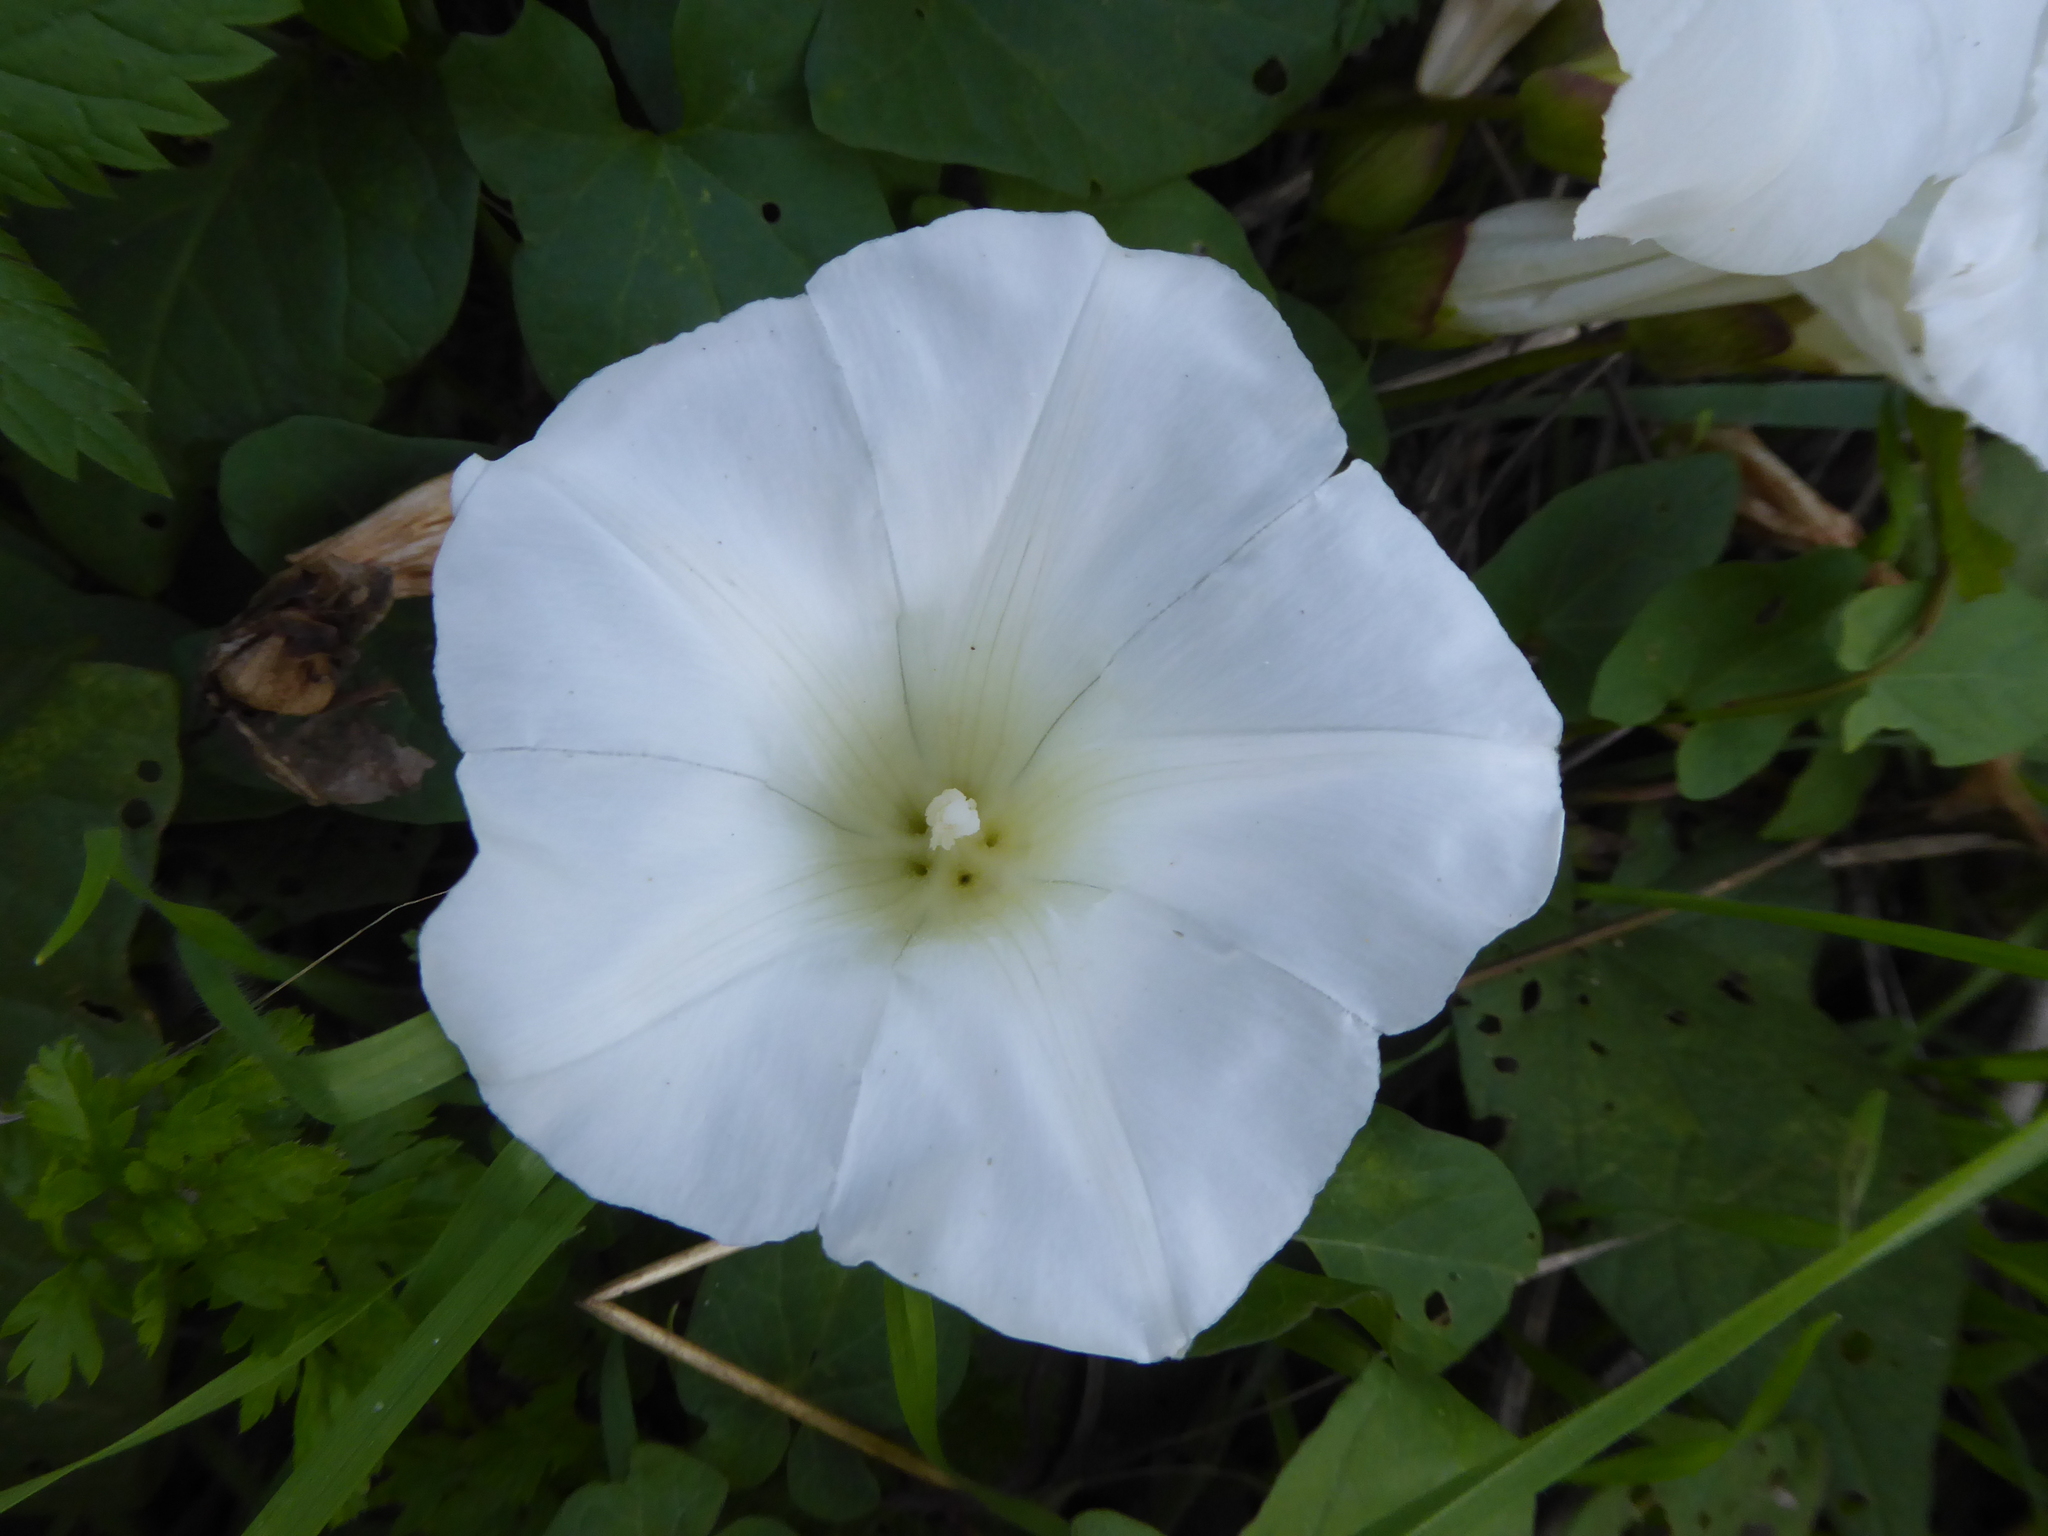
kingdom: Plantae
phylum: Tracheophyta
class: Magnoliopsida
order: Solanales
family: Convolvulaceae
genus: Calystegia
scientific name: Calystegia lucana
